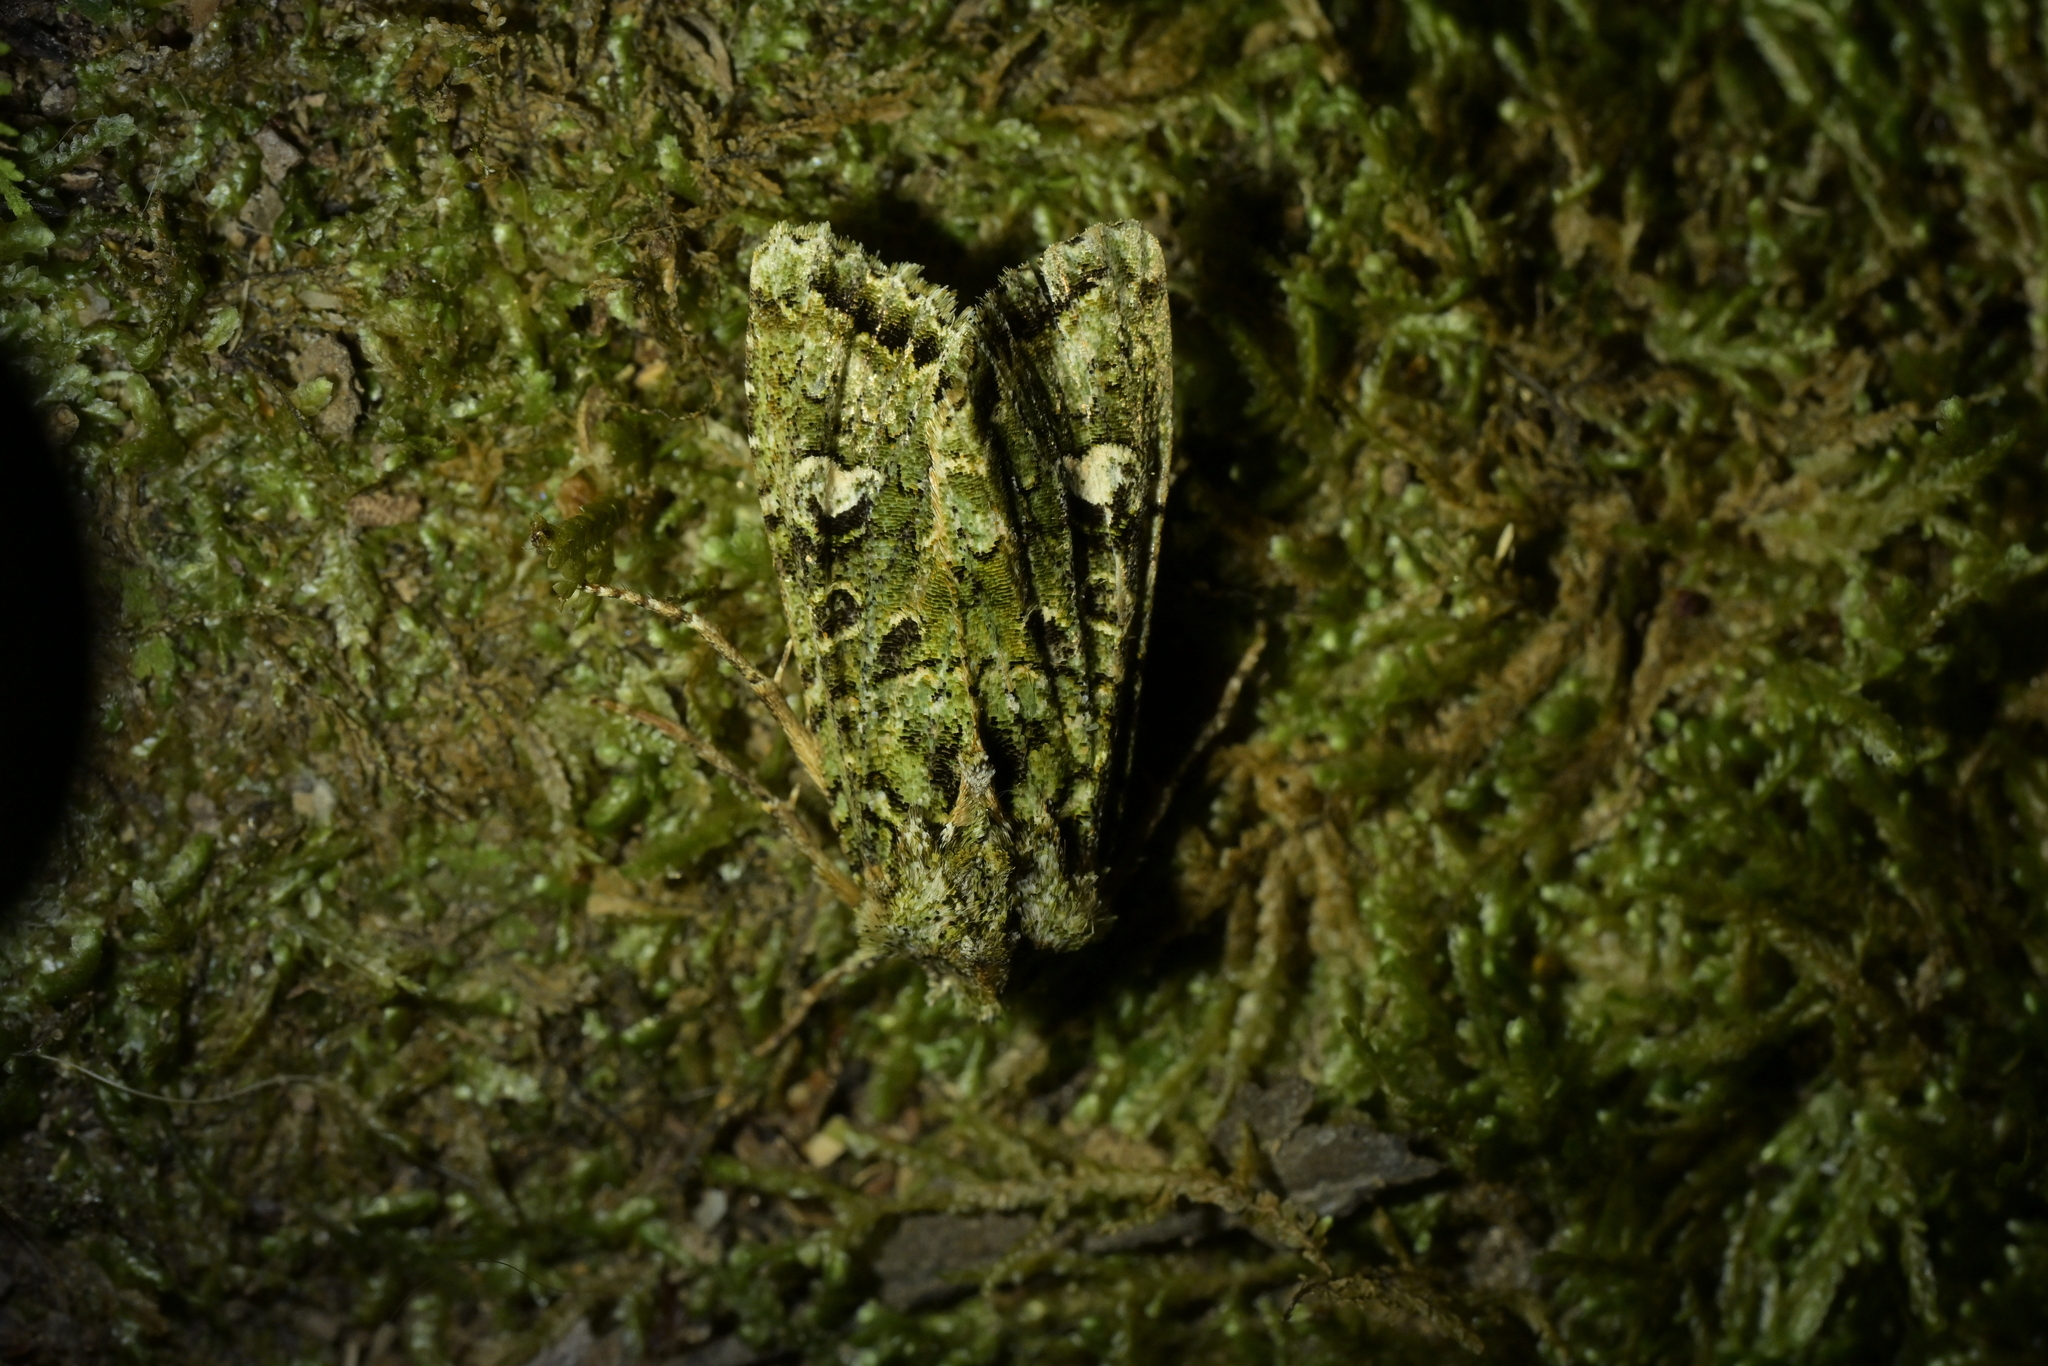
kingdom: Animalia
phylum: Arthropoda
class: Insecta
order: Lepidoptera
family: Noctuidae
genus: Ichneutica
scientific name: Ichneutica
